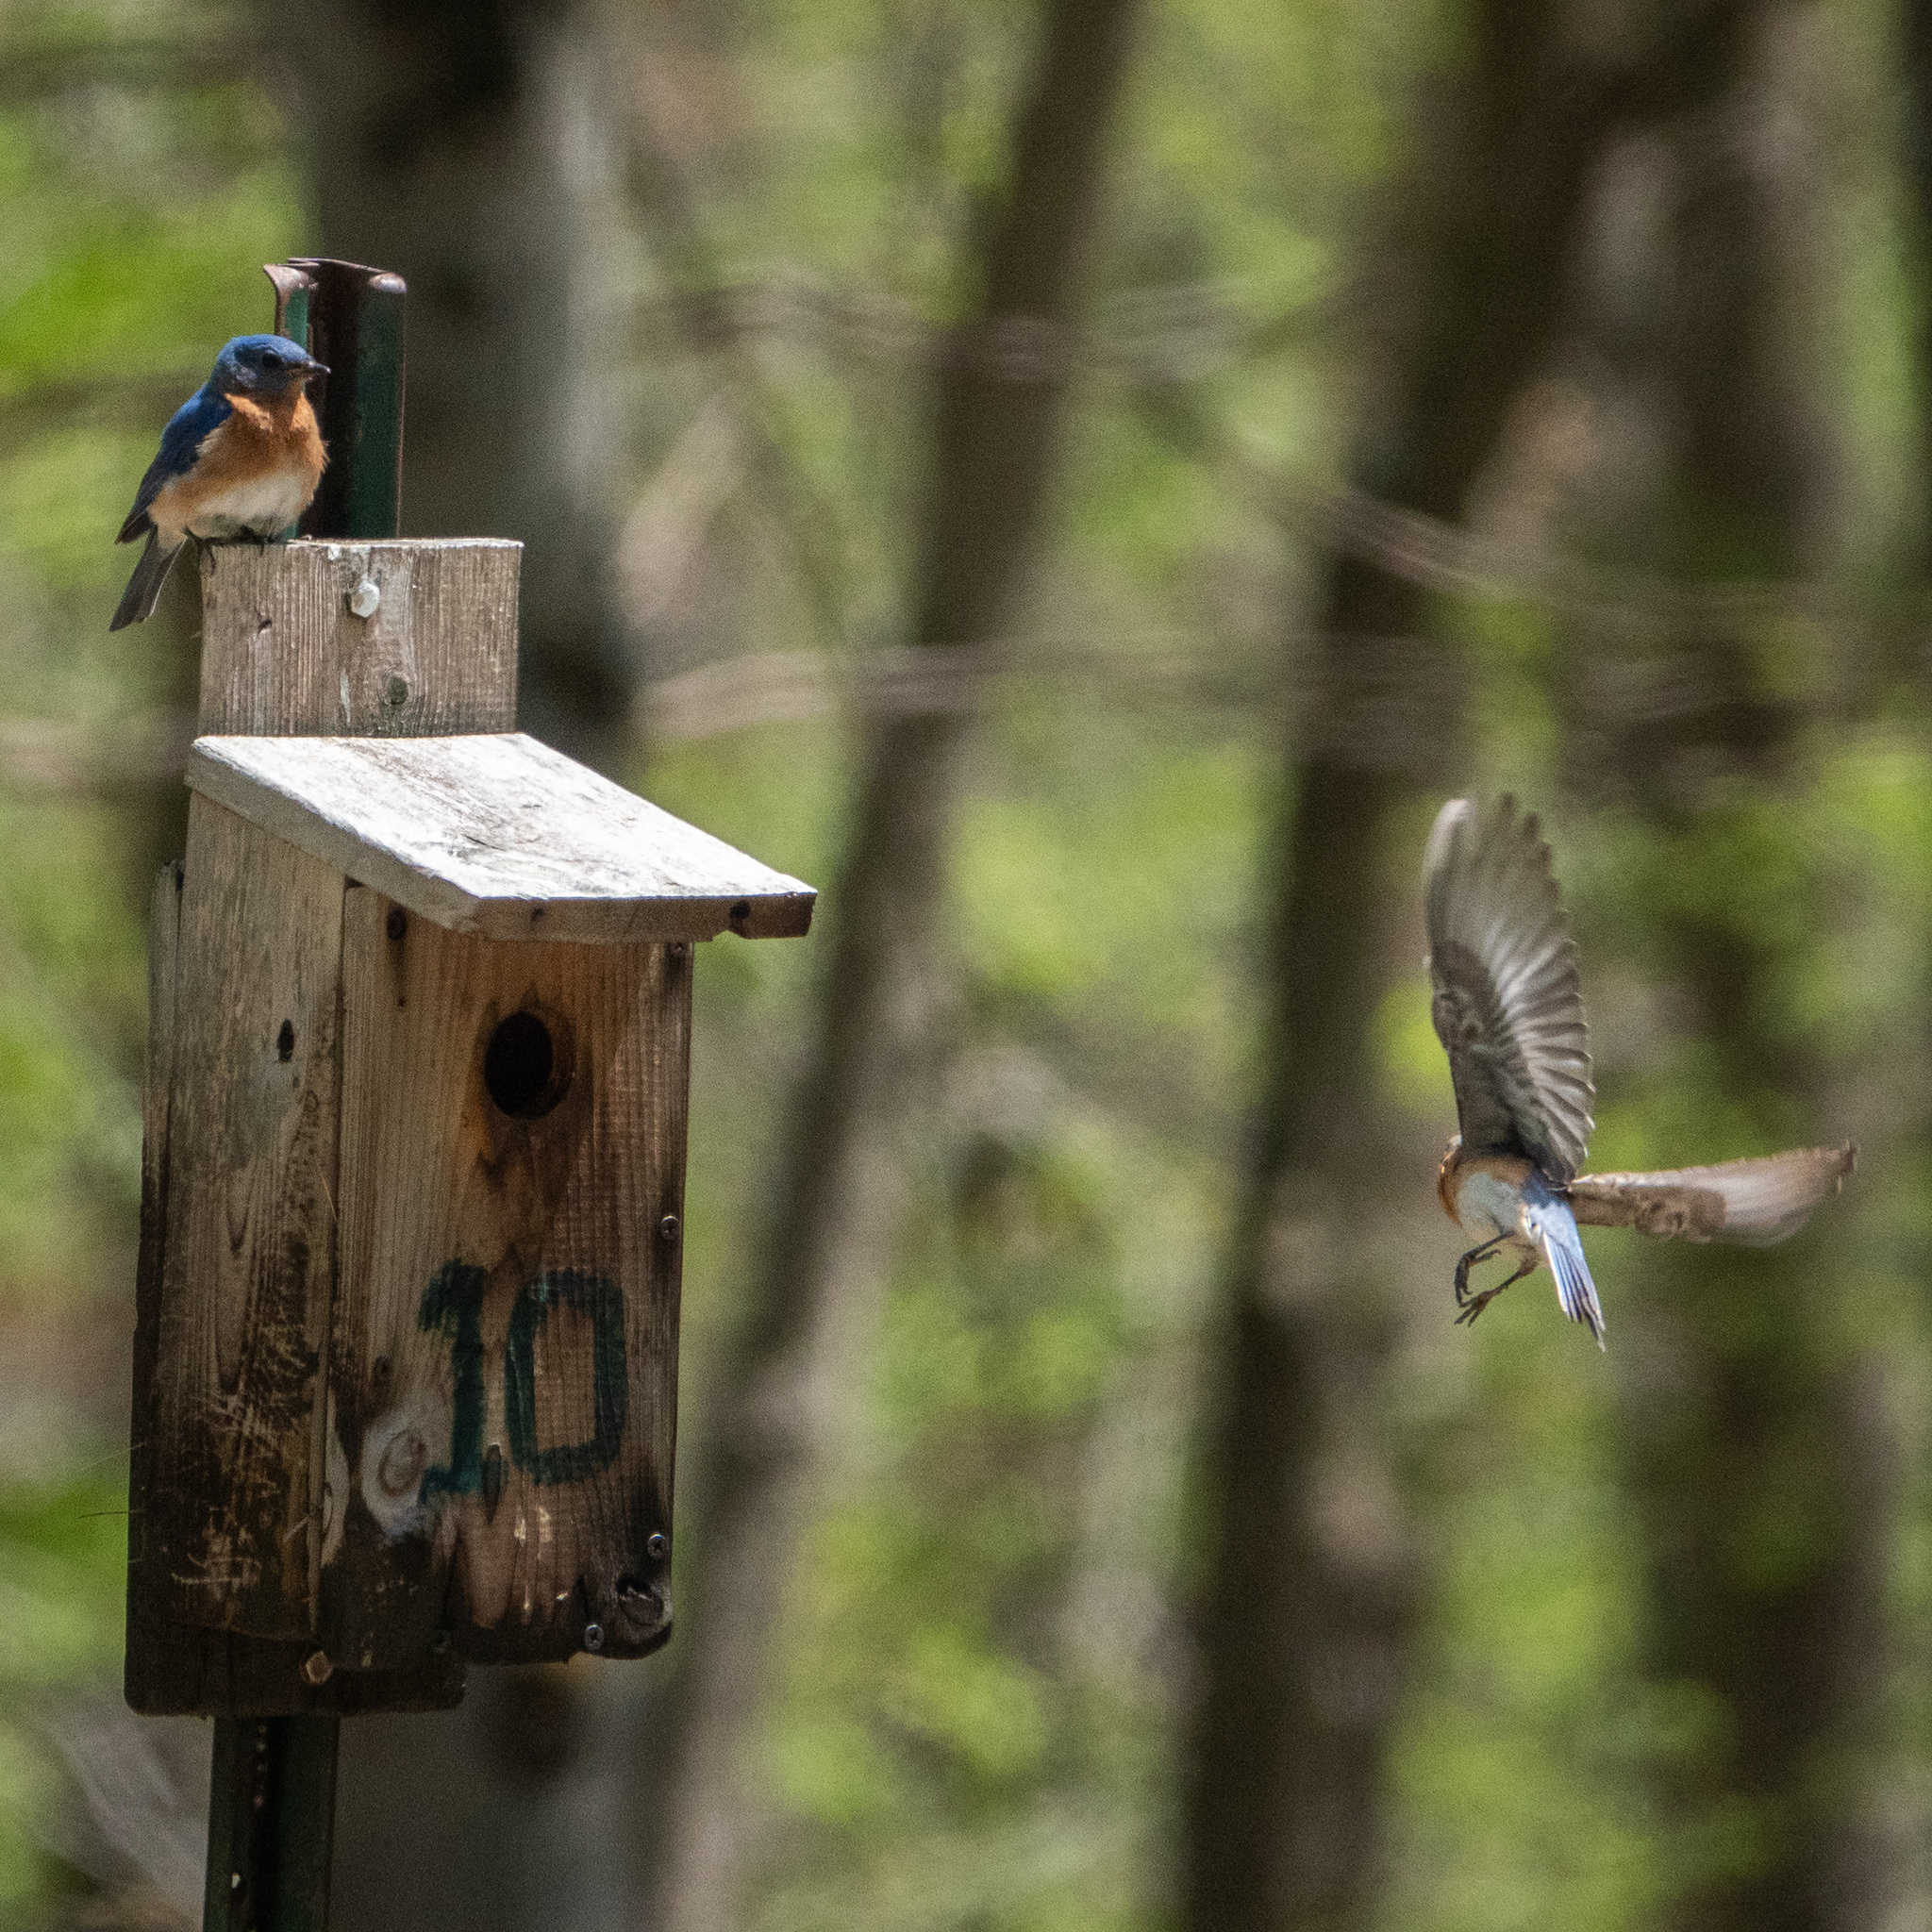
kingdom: Animalia
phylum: Chordata
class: Aves
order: Passeriformes
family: Turdidae
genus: Sialia
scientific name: Sialia sialis
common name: Eastern bluebird
